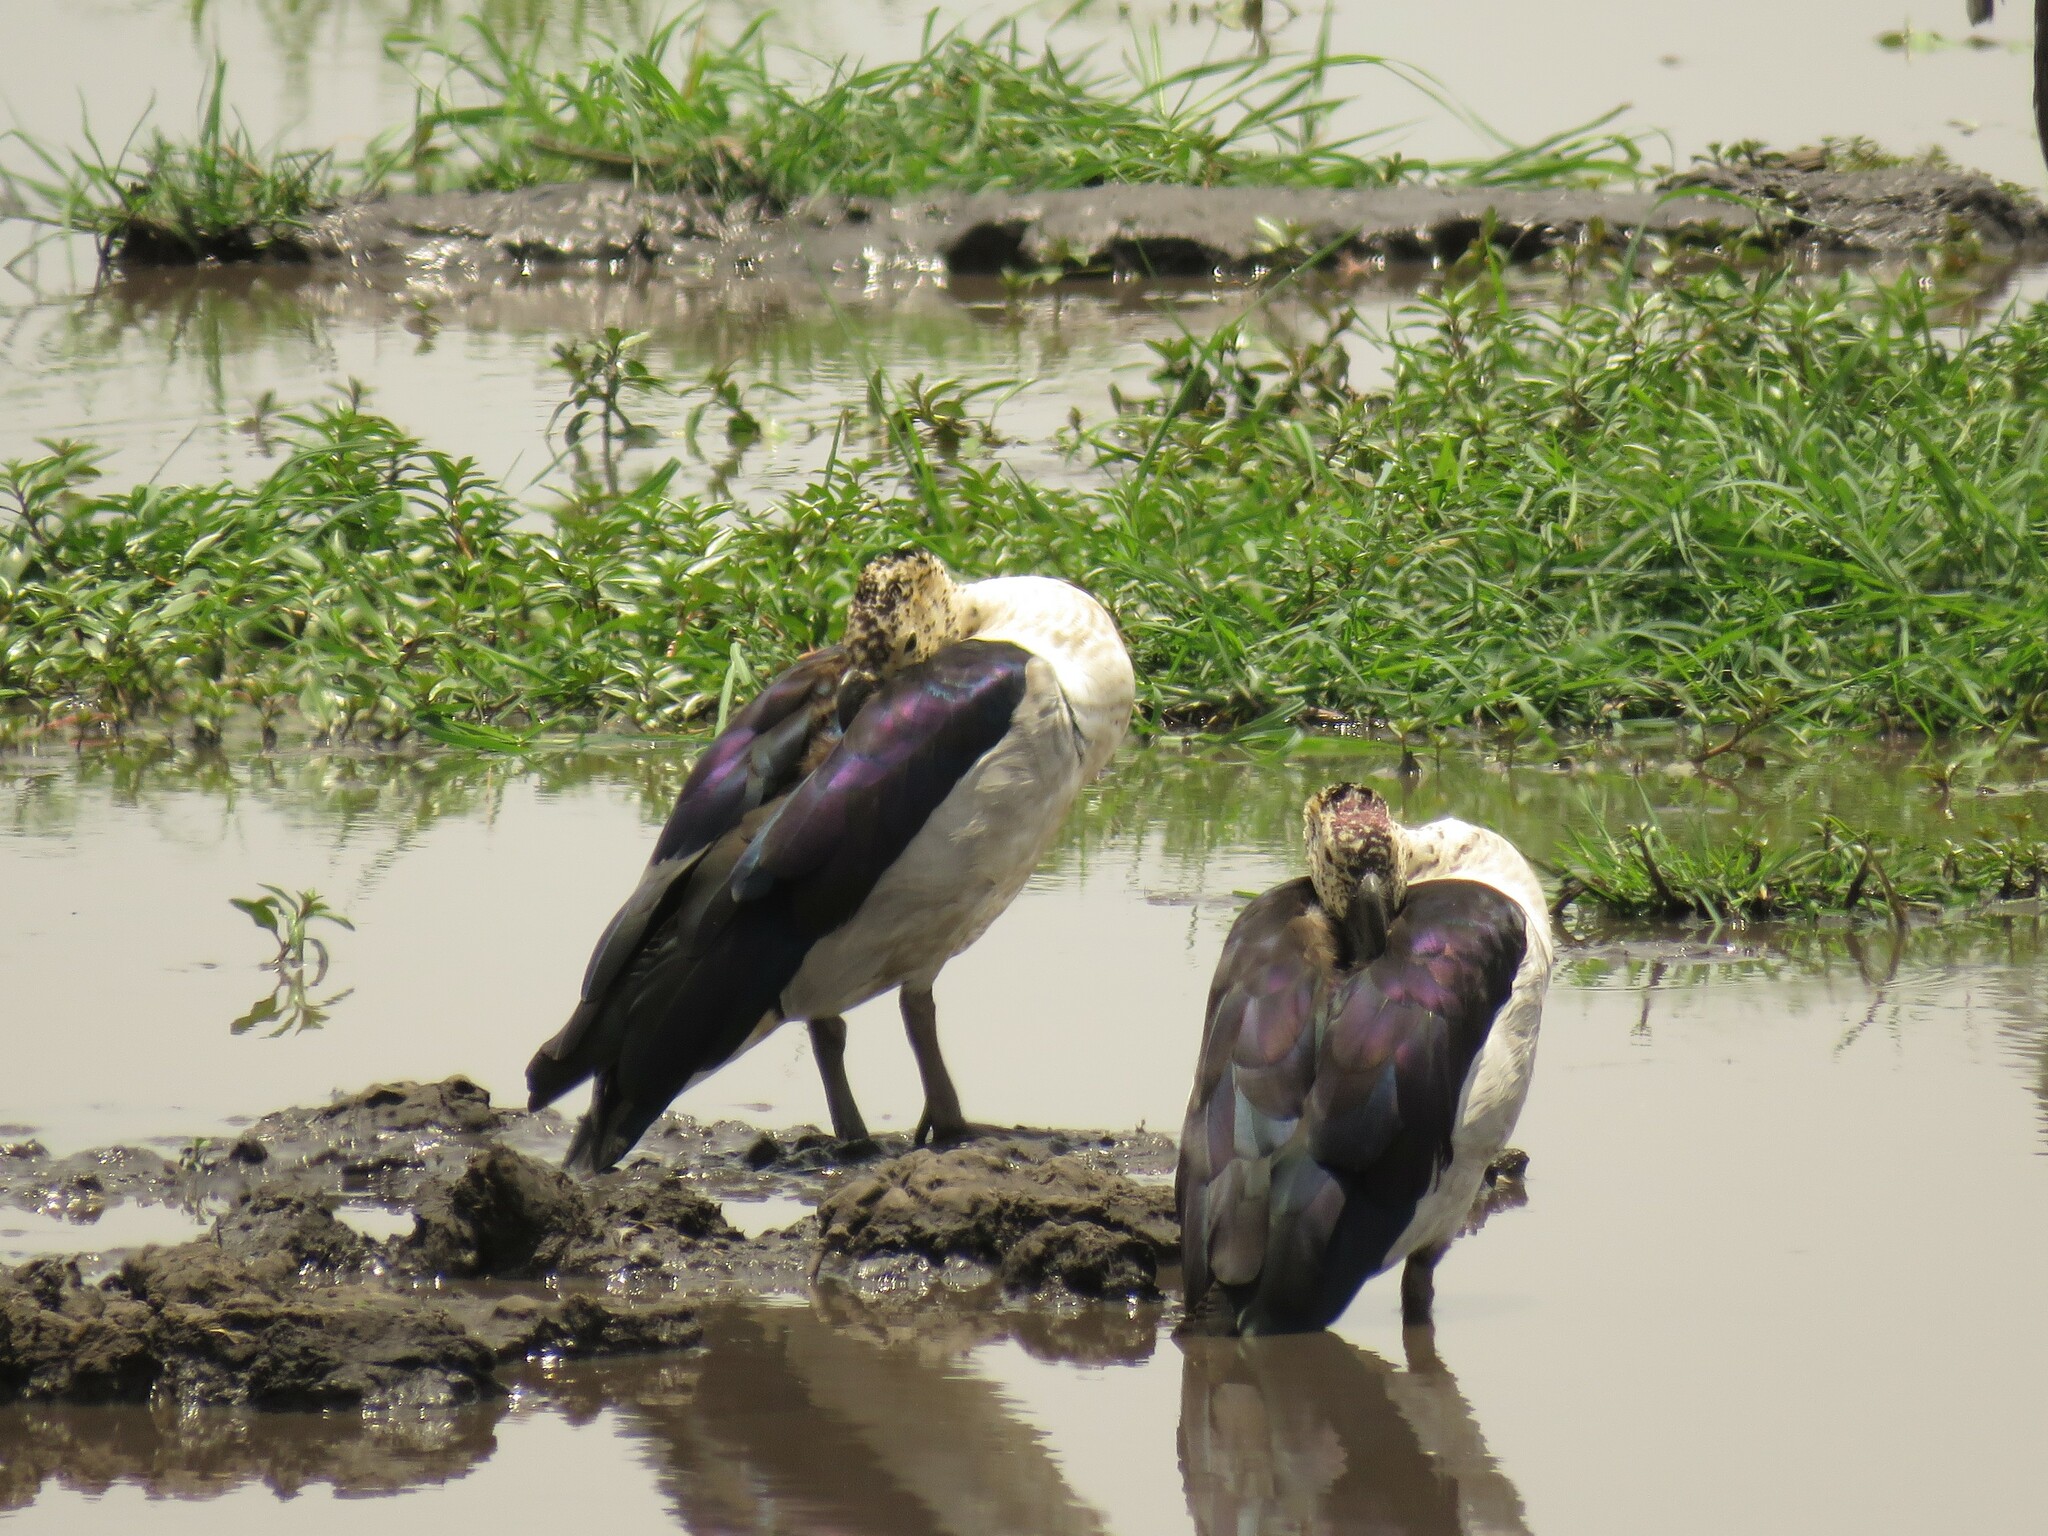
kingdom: Animalia
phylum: Chordata
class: Aves
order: Anseriformes
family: Anatidae
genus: Sarkidiornis
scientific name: Sarkidiornis melanotos
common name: Comb duck
